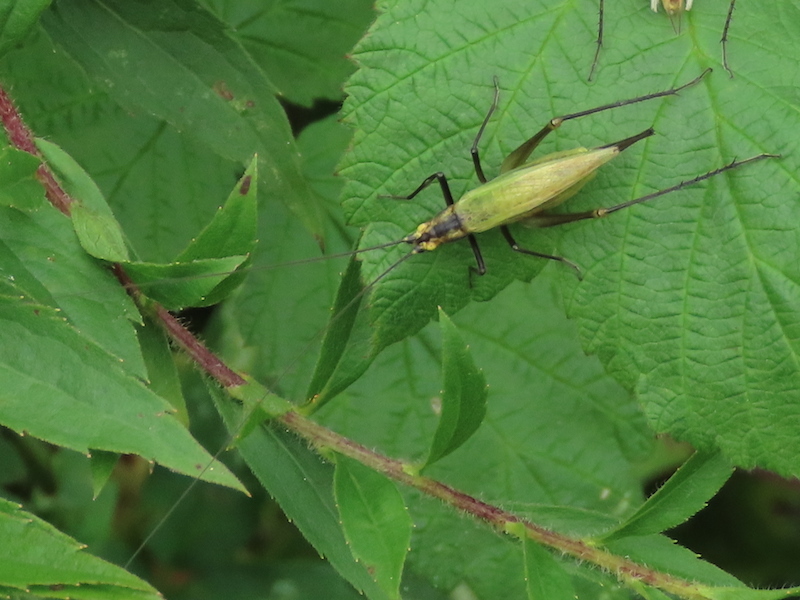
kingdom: Animalia
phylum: Arthropoda
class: Insecta
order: Orthoptera
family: Gryllidae
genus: Oecanthus
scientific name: Oecanthus nigricornis
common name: Black-horned tree cricket
